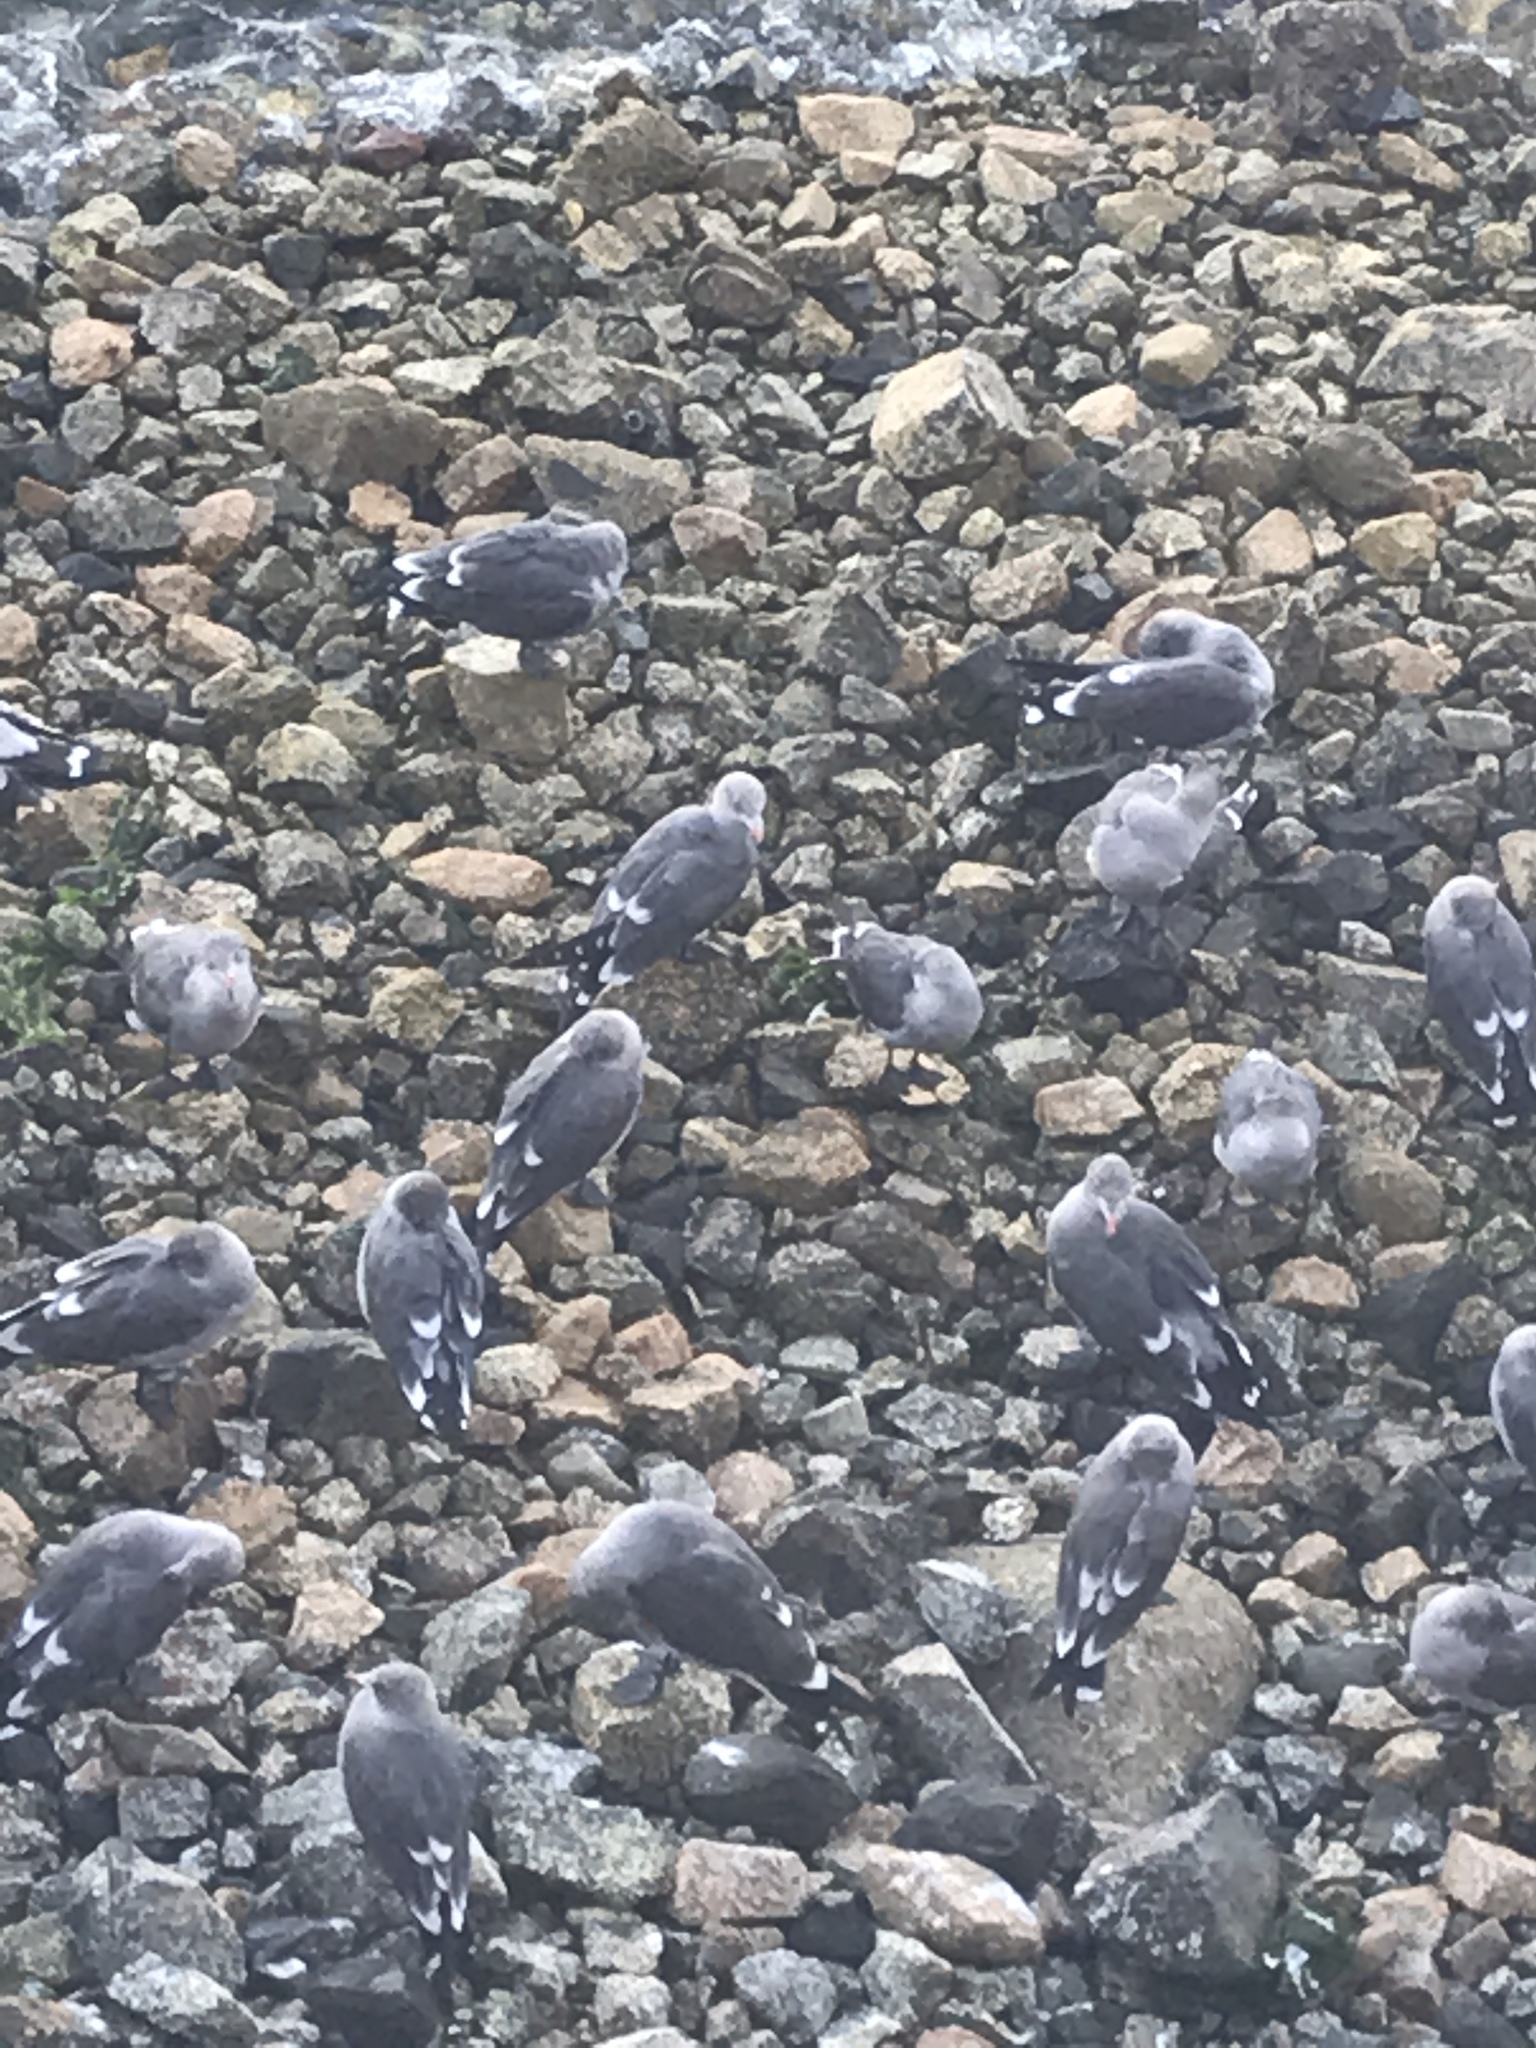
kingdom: Animalia
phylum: Chordata
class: Aves
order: Charadriiformes
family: Laridae
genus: Larus
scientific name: Larus heermanni
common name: Heermann's gull
